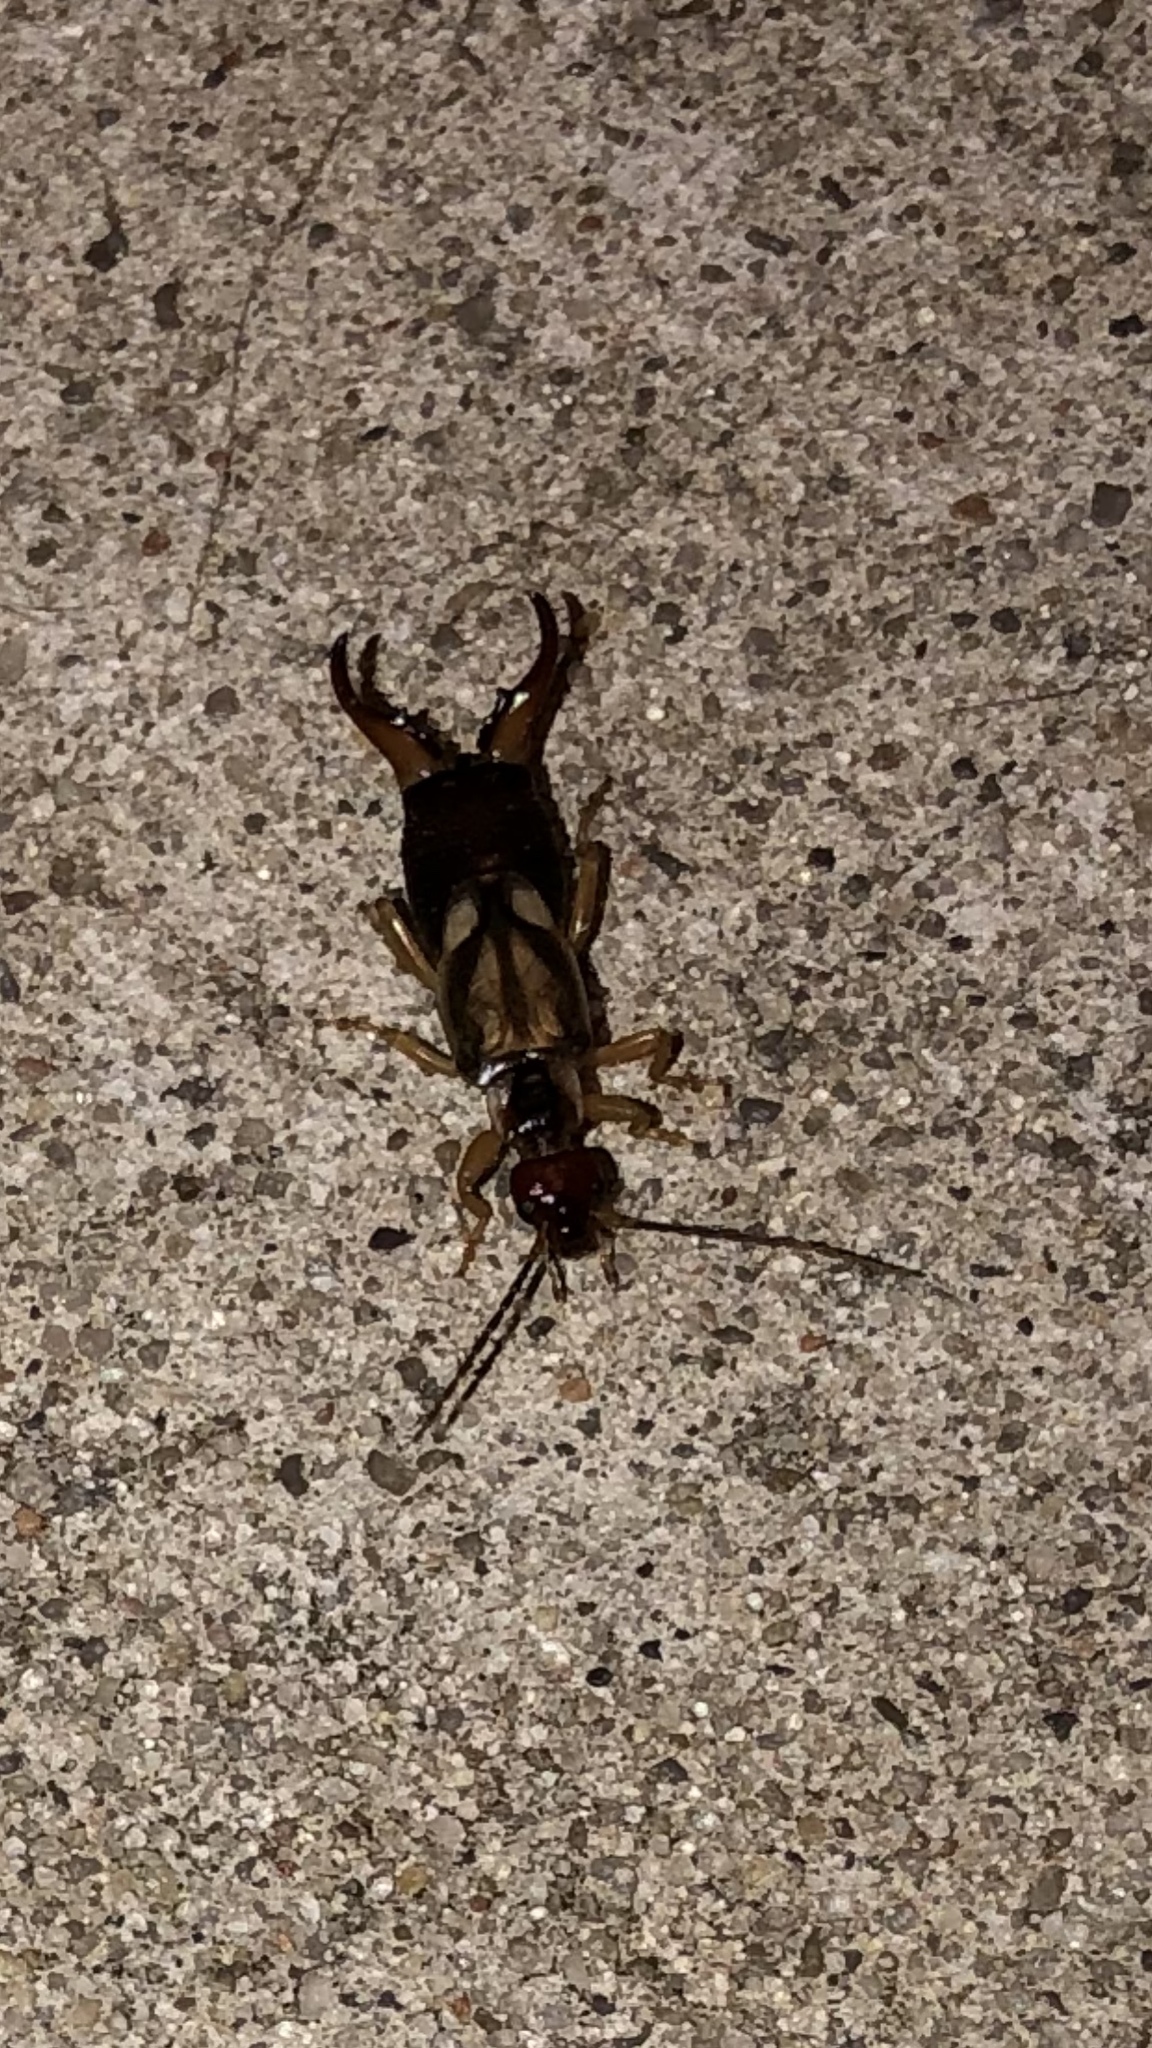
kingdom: Animalia
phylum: Arthropoda
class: Insecta
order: Dermaptera
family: Forficulidae
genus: Forficula
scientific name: Forficula
